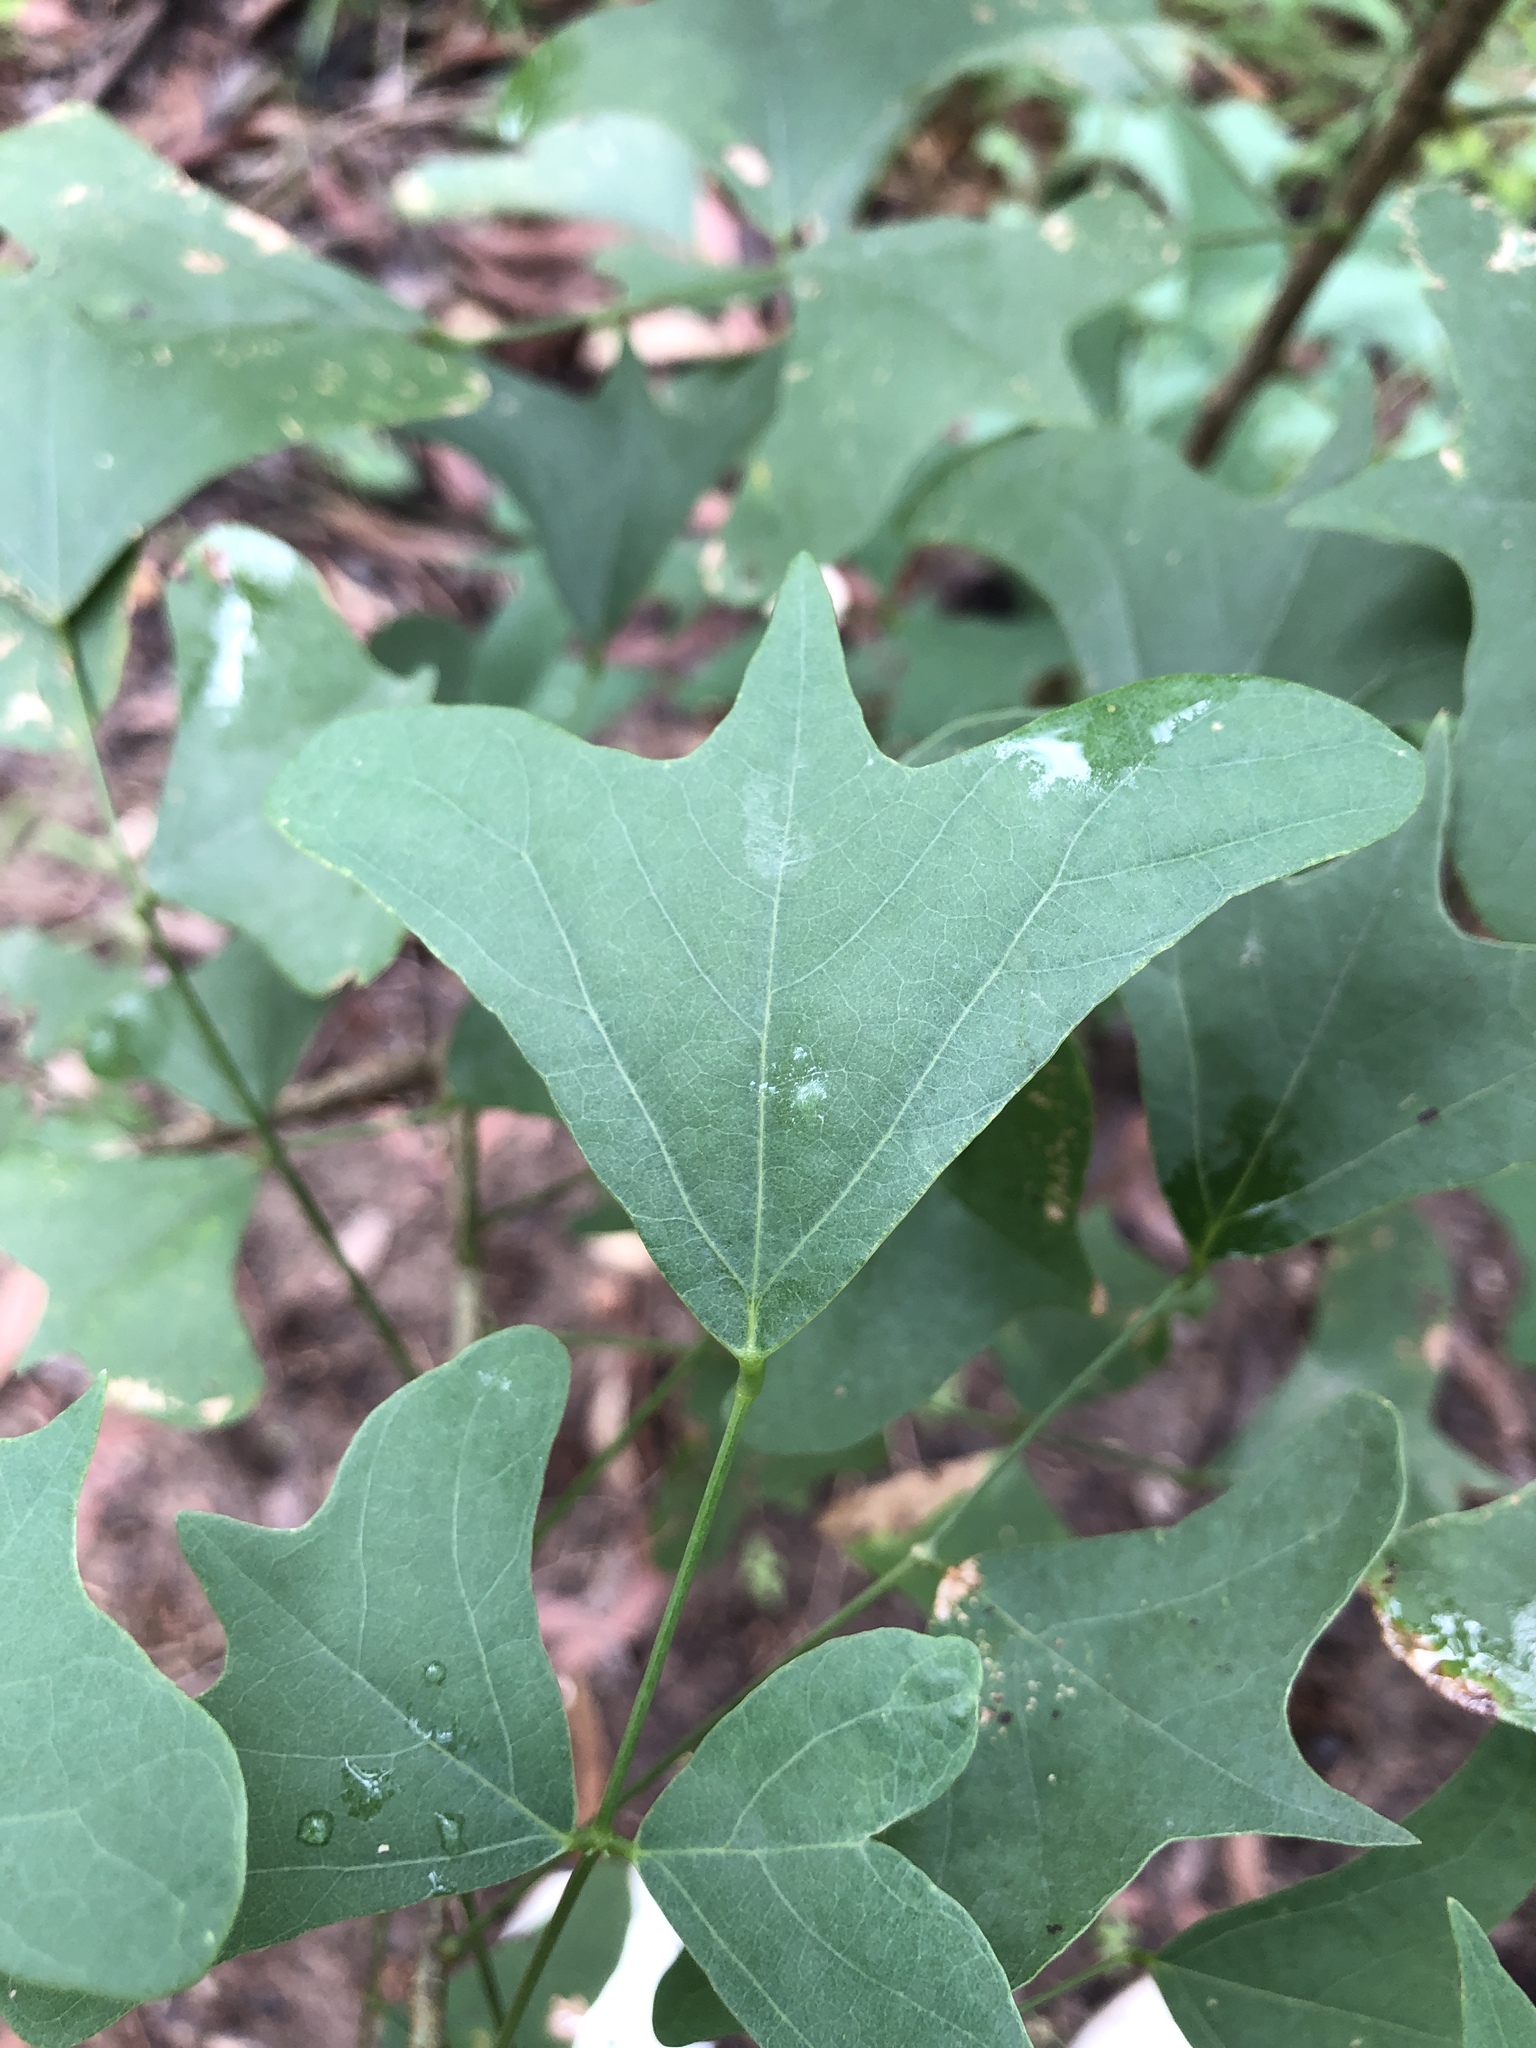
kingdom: Plantae
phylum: Tracheophyta
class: Magnoliopsida
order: Fabales
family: Fabaceae
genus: Erythrina
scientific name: Erythrina vespertilio
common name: Bat-wing coral tree
